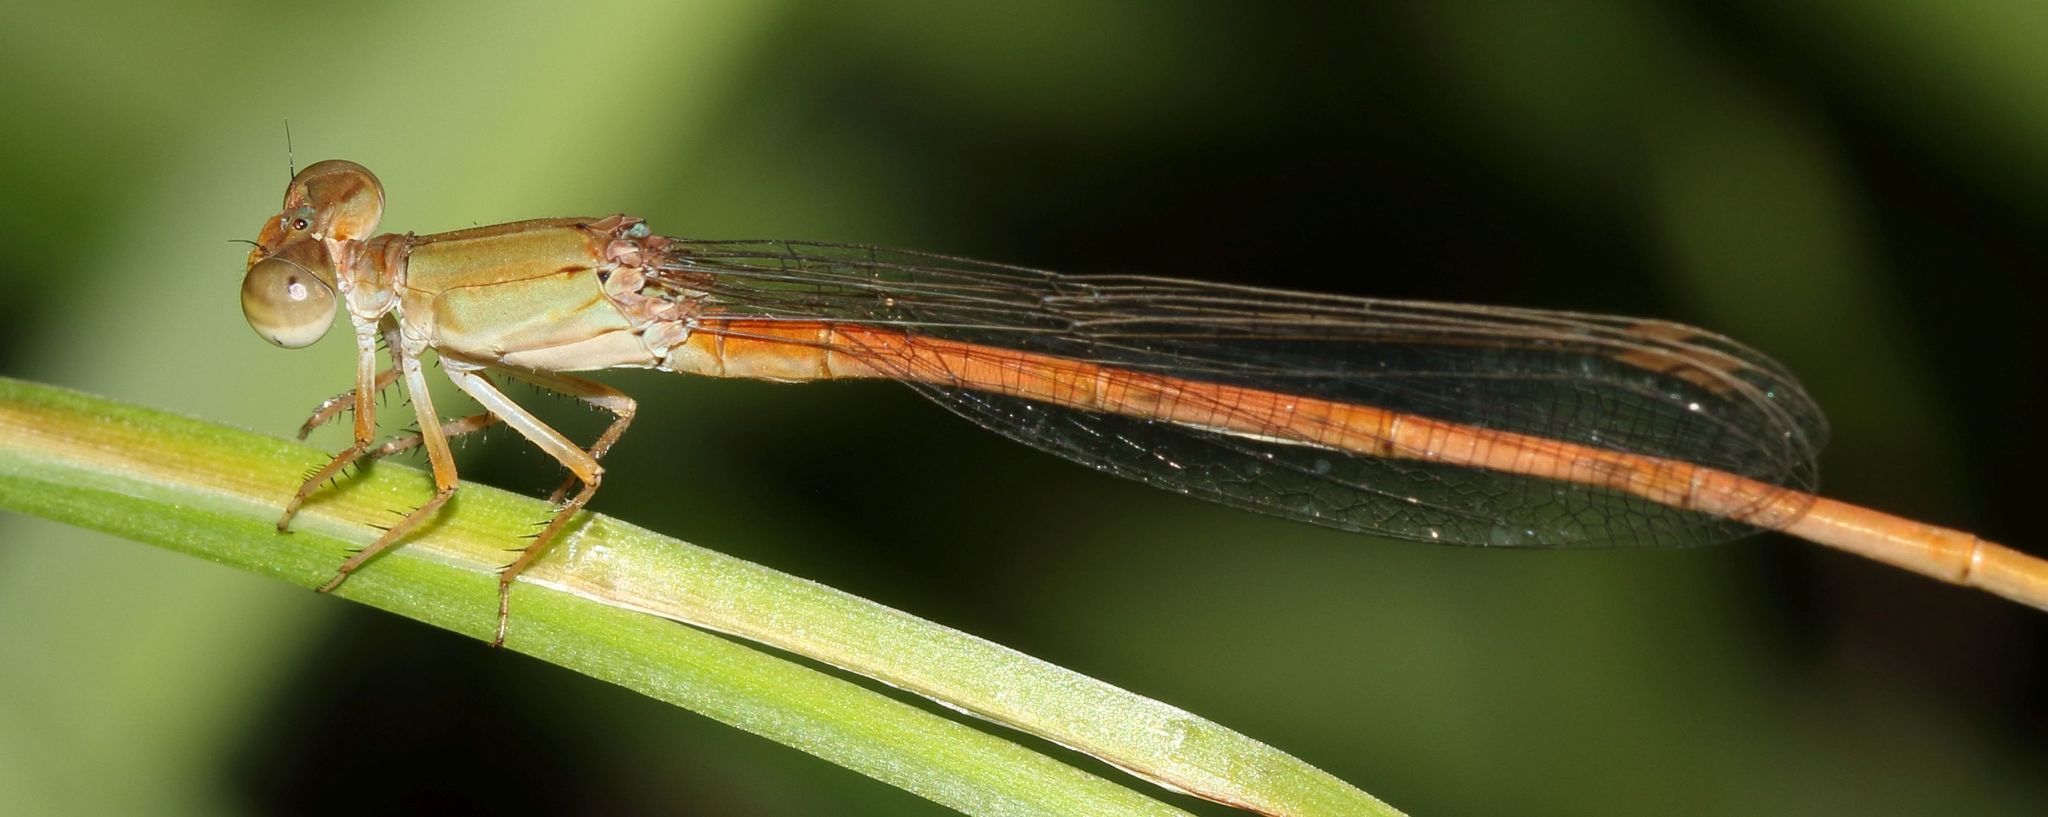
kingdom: Animalia
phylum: Arthropoda
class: Insecta
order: Odonata
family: Coenagrionidae
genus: Ceriagrion
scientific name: Ceriagrion glabrum
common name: Common pond damsel
